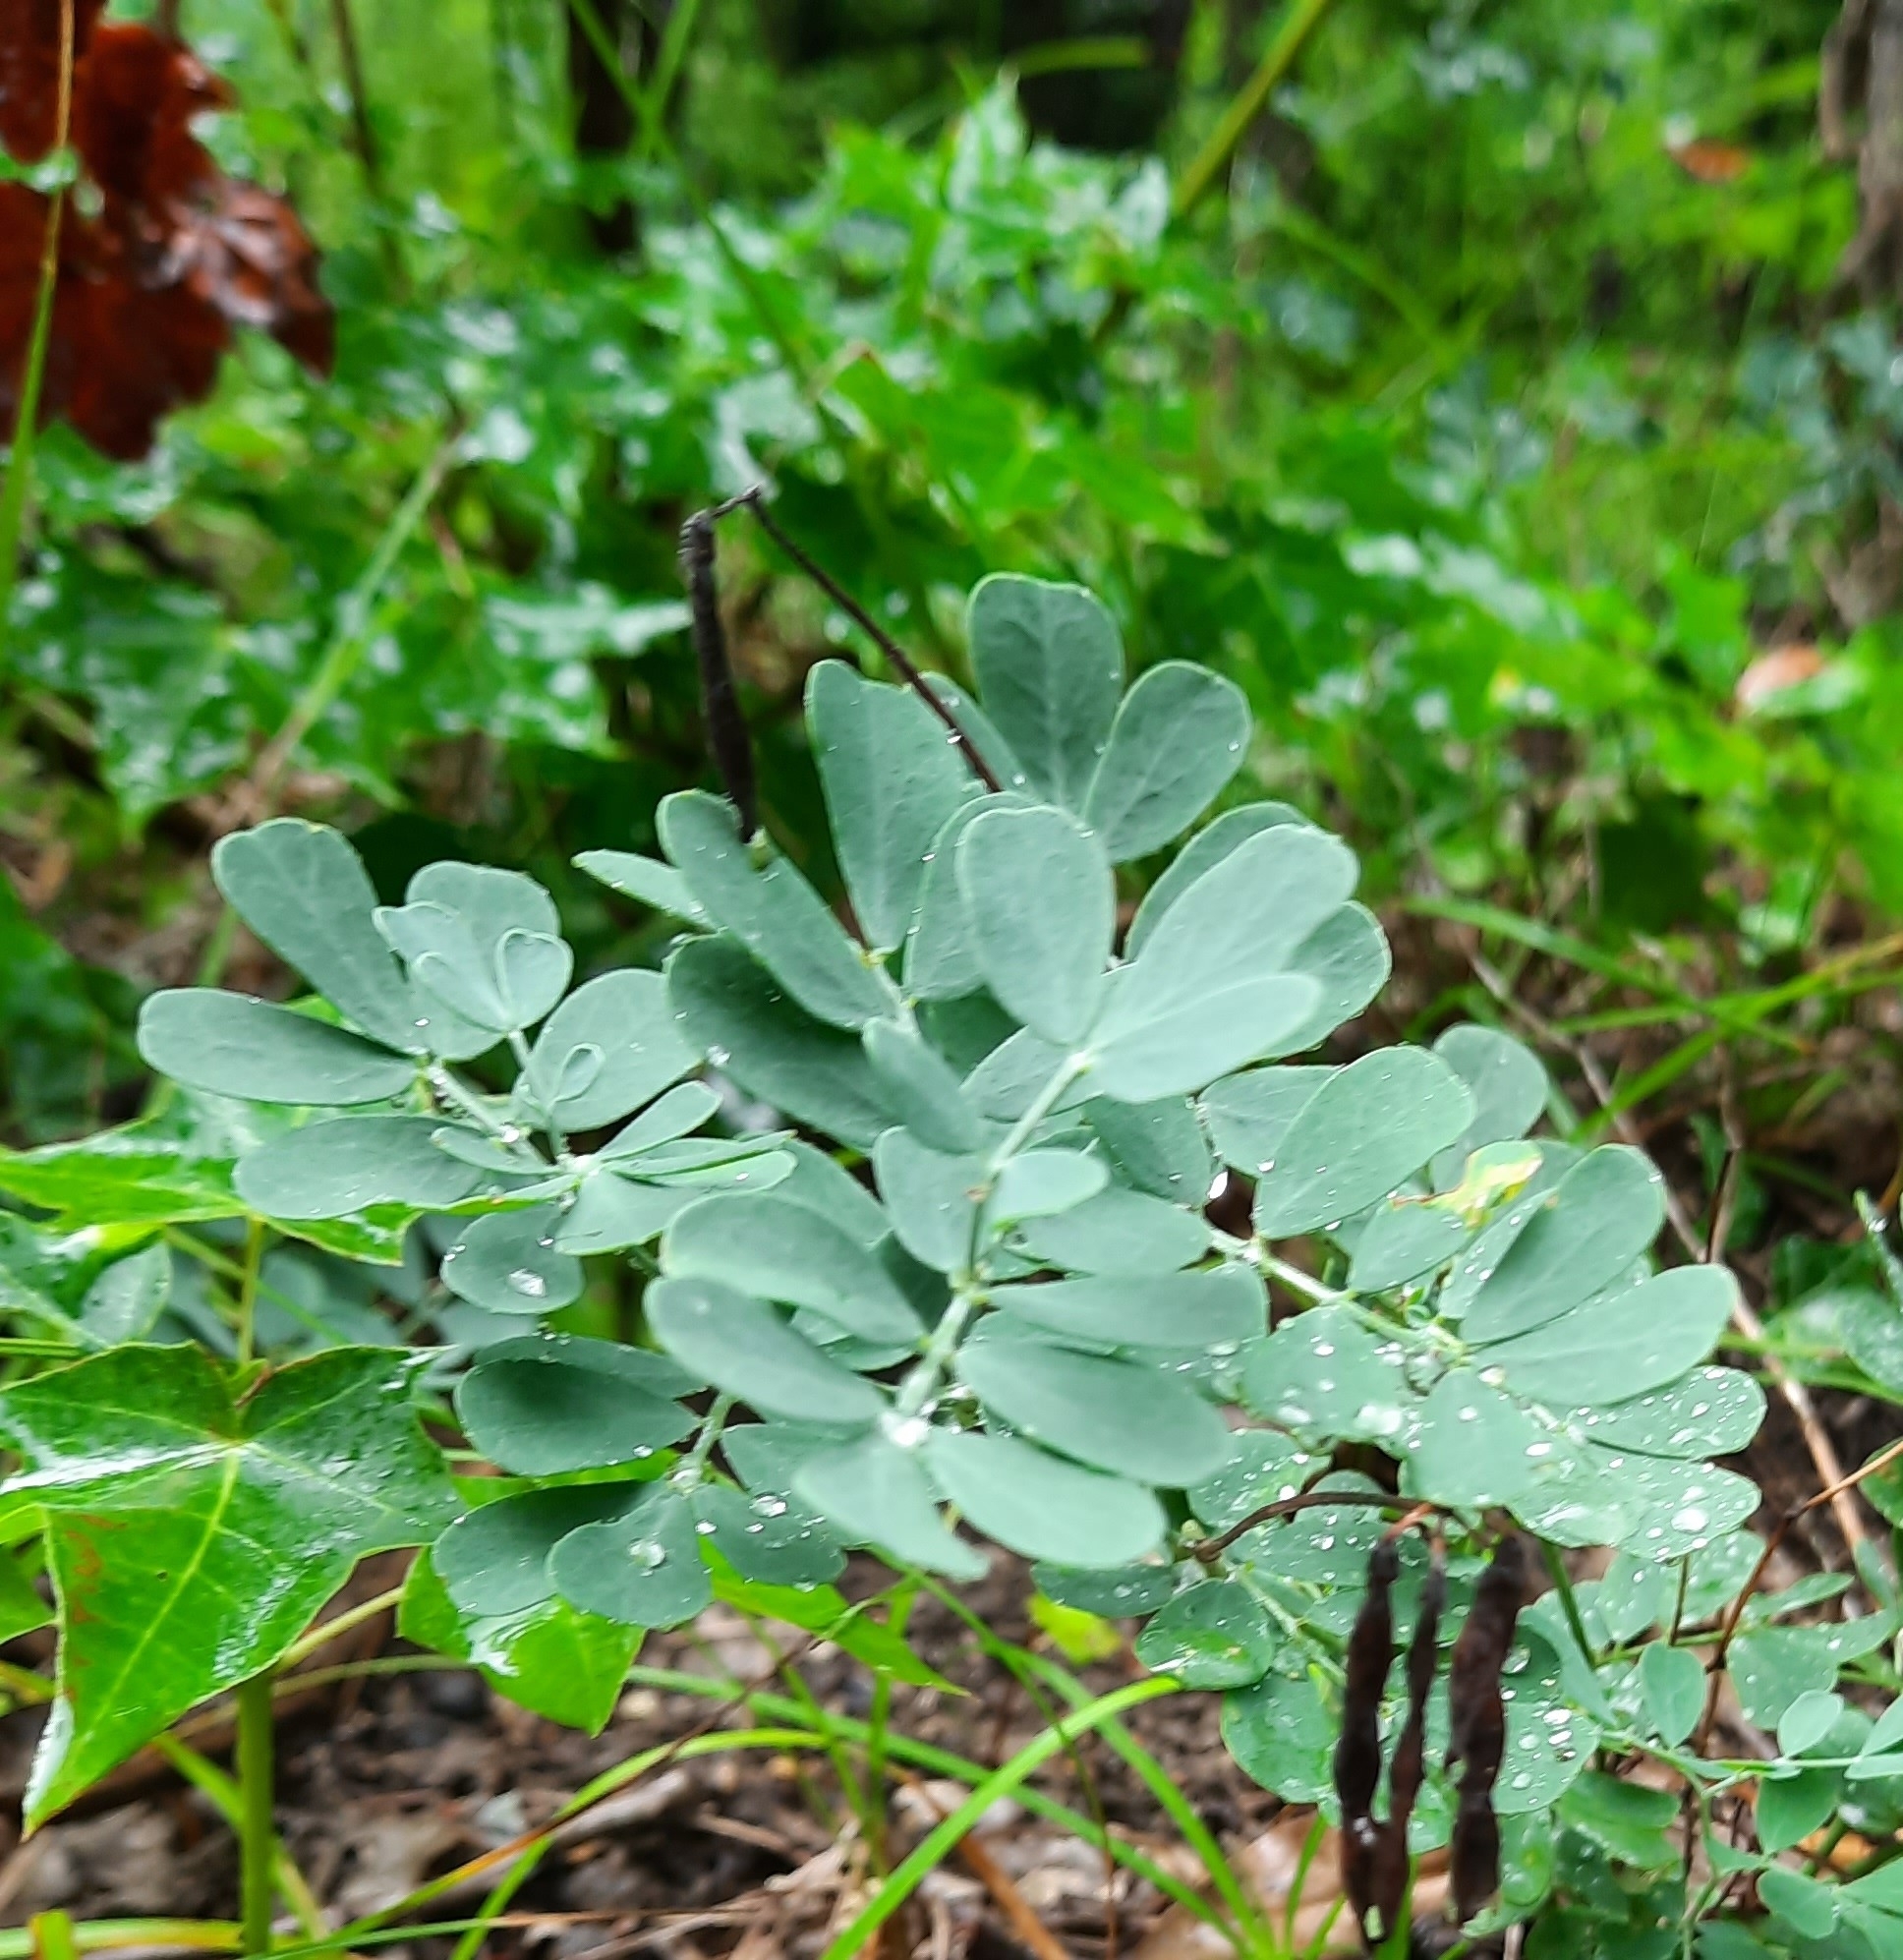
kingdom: Plantae
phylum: Tracheophyta
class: Magnoliopsida
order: Fabales
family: Fabaceae
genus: Coronilla
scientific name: Coronilla coronata
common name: Scorpion-vetch
